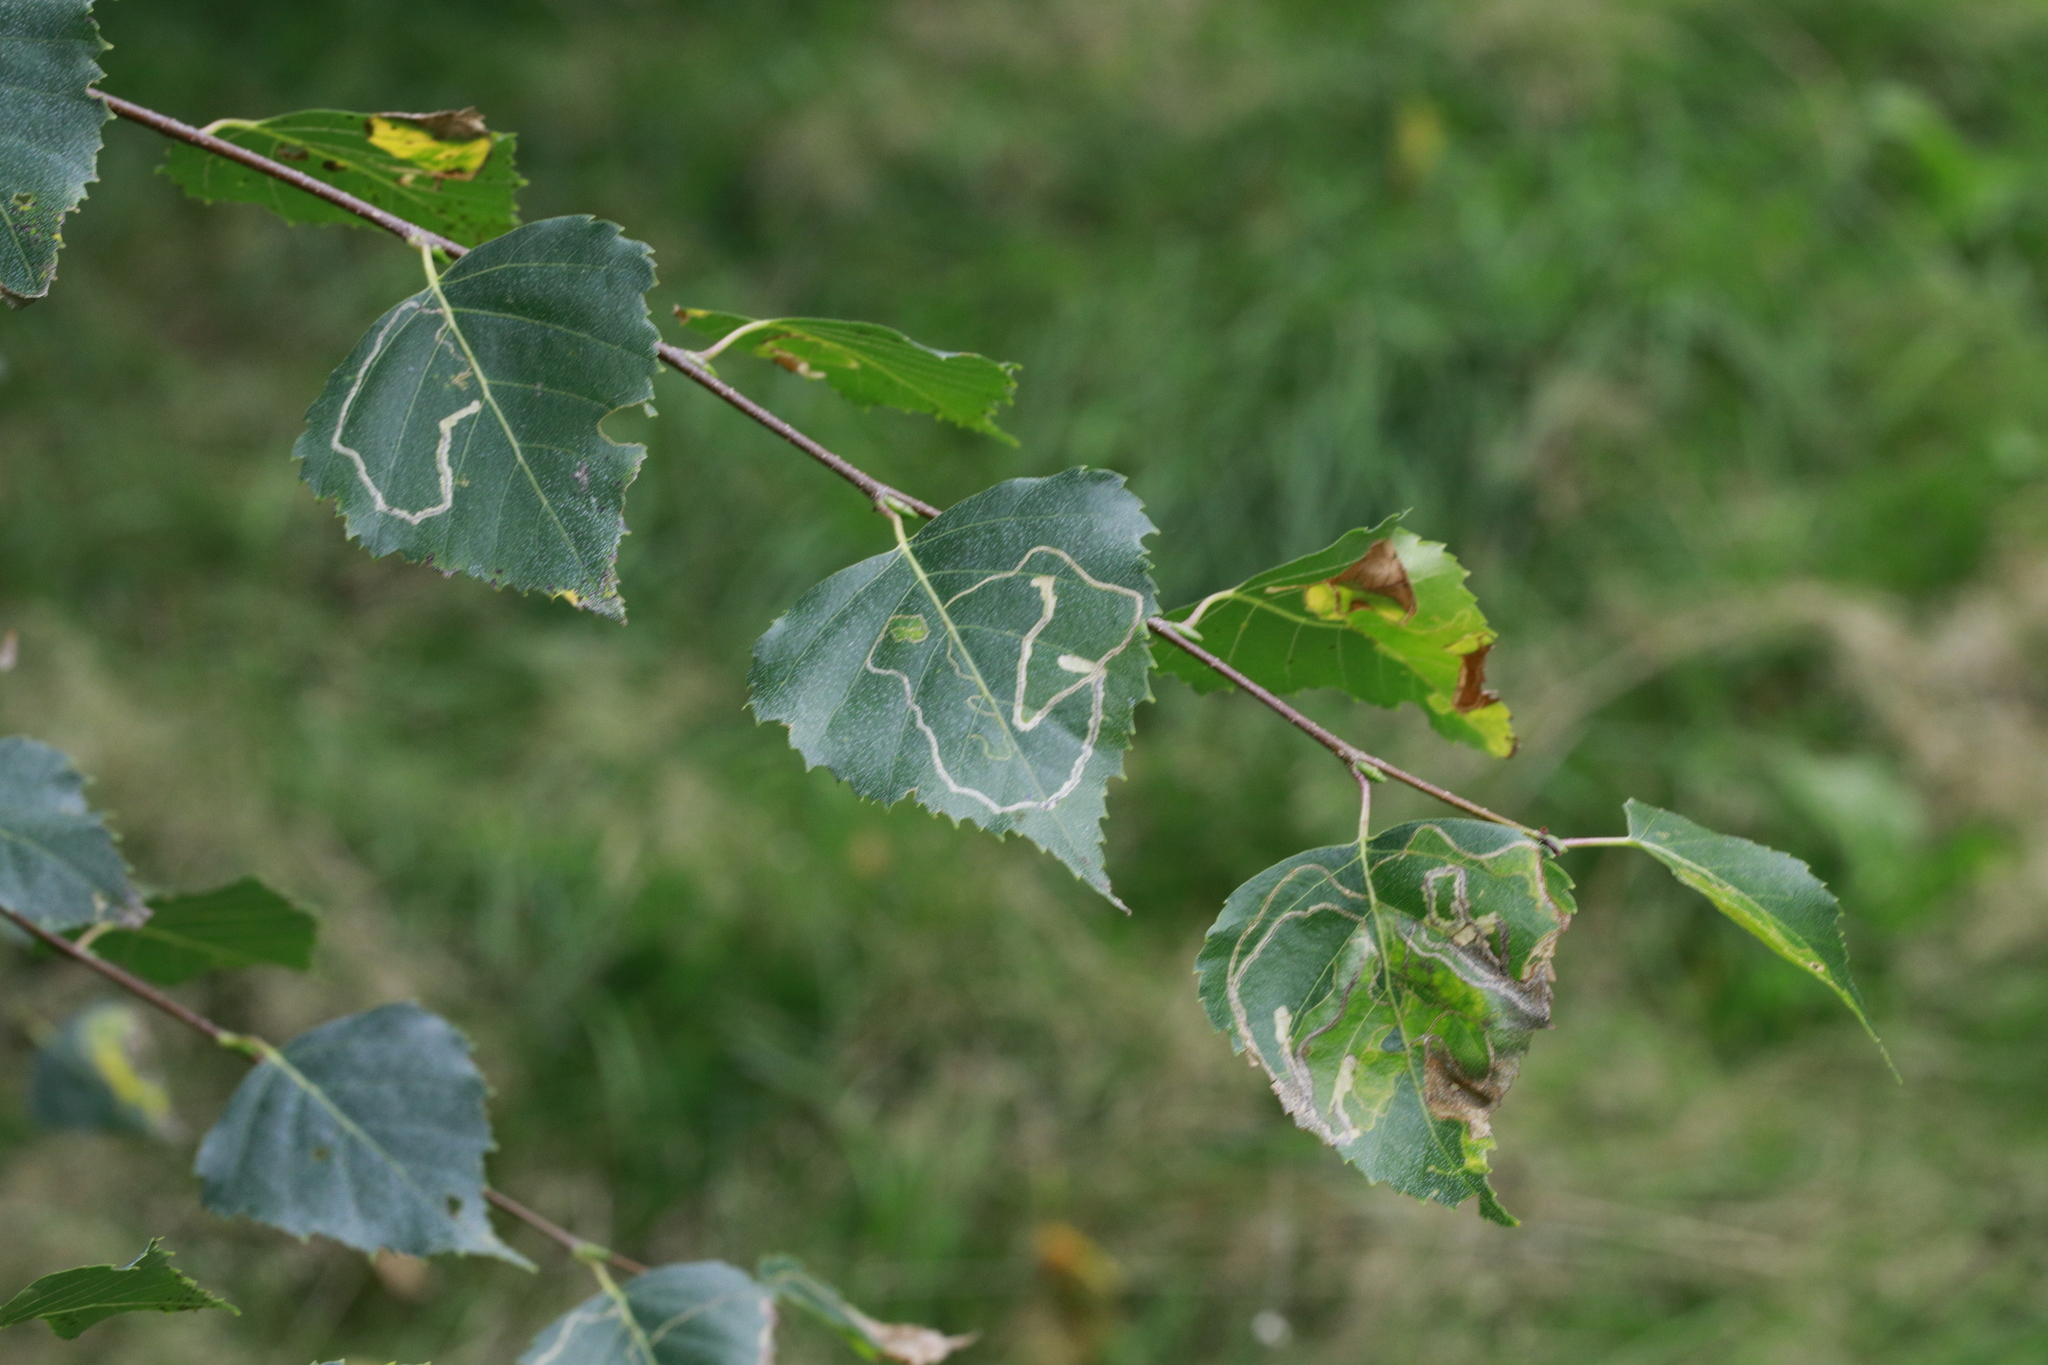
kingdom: Animalia
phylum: Arthropoda
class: Insecta
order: Lepidoptera
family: Lyonetiidae
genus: Lyonetia
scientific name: Lyonetia clerkella
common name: Apple leaf miner
